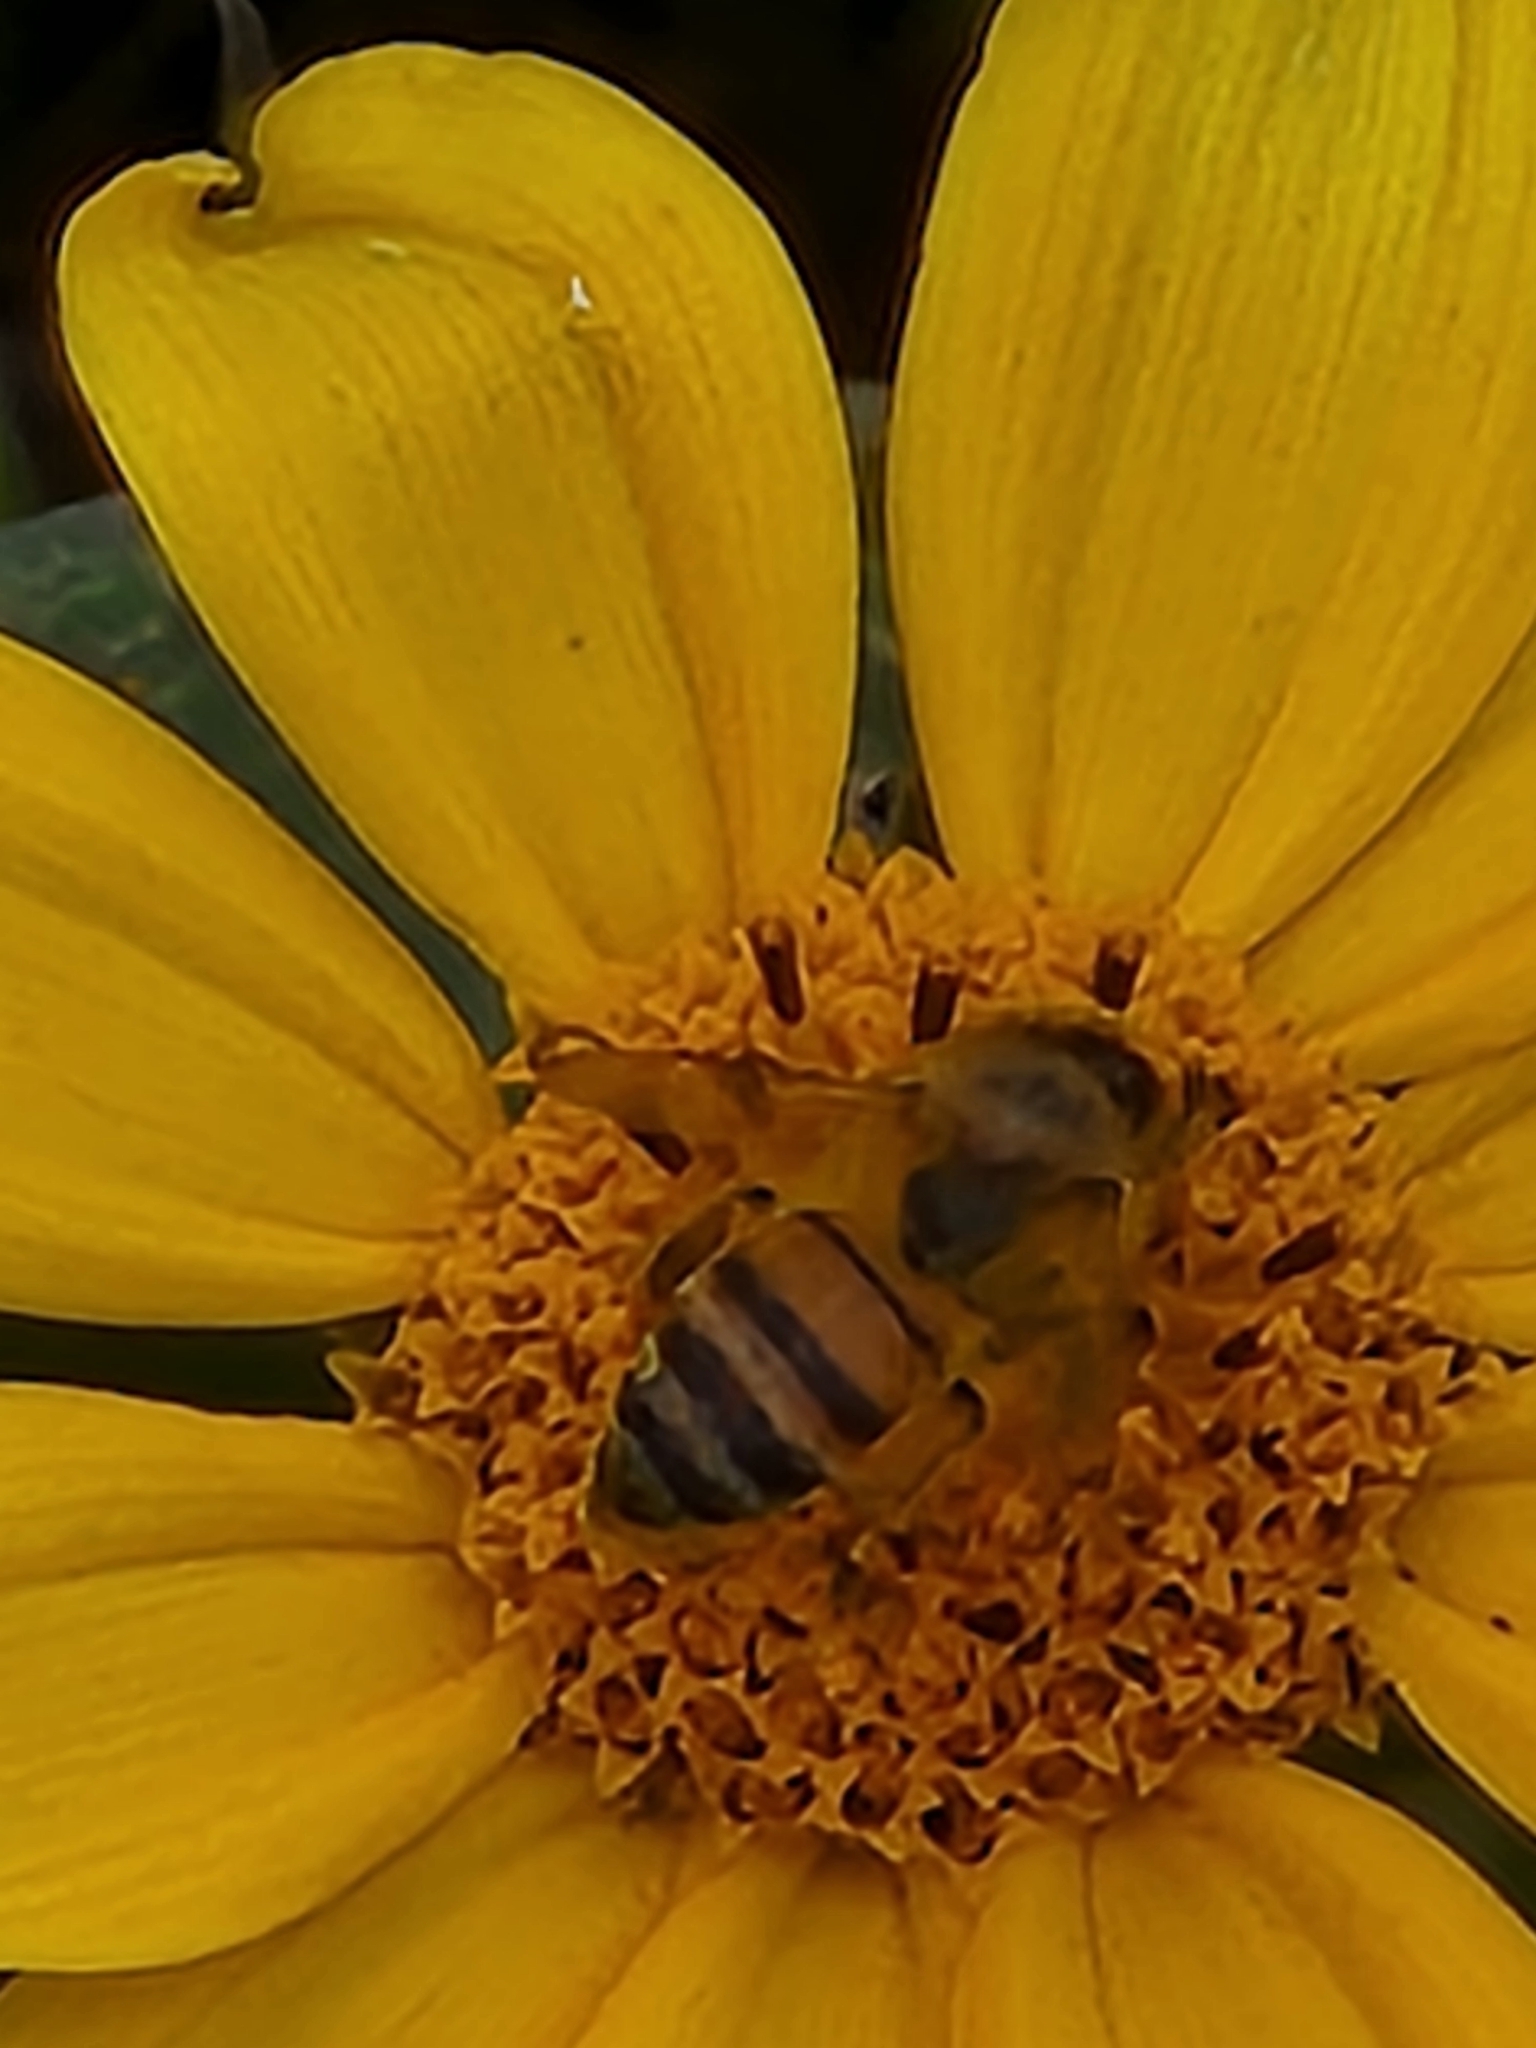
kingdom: Animalia
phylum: Arthropoda
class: Insecta
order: Hymenoptera
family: Apidae
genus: Apis
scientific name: Apis mellifera
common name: Honey bee
